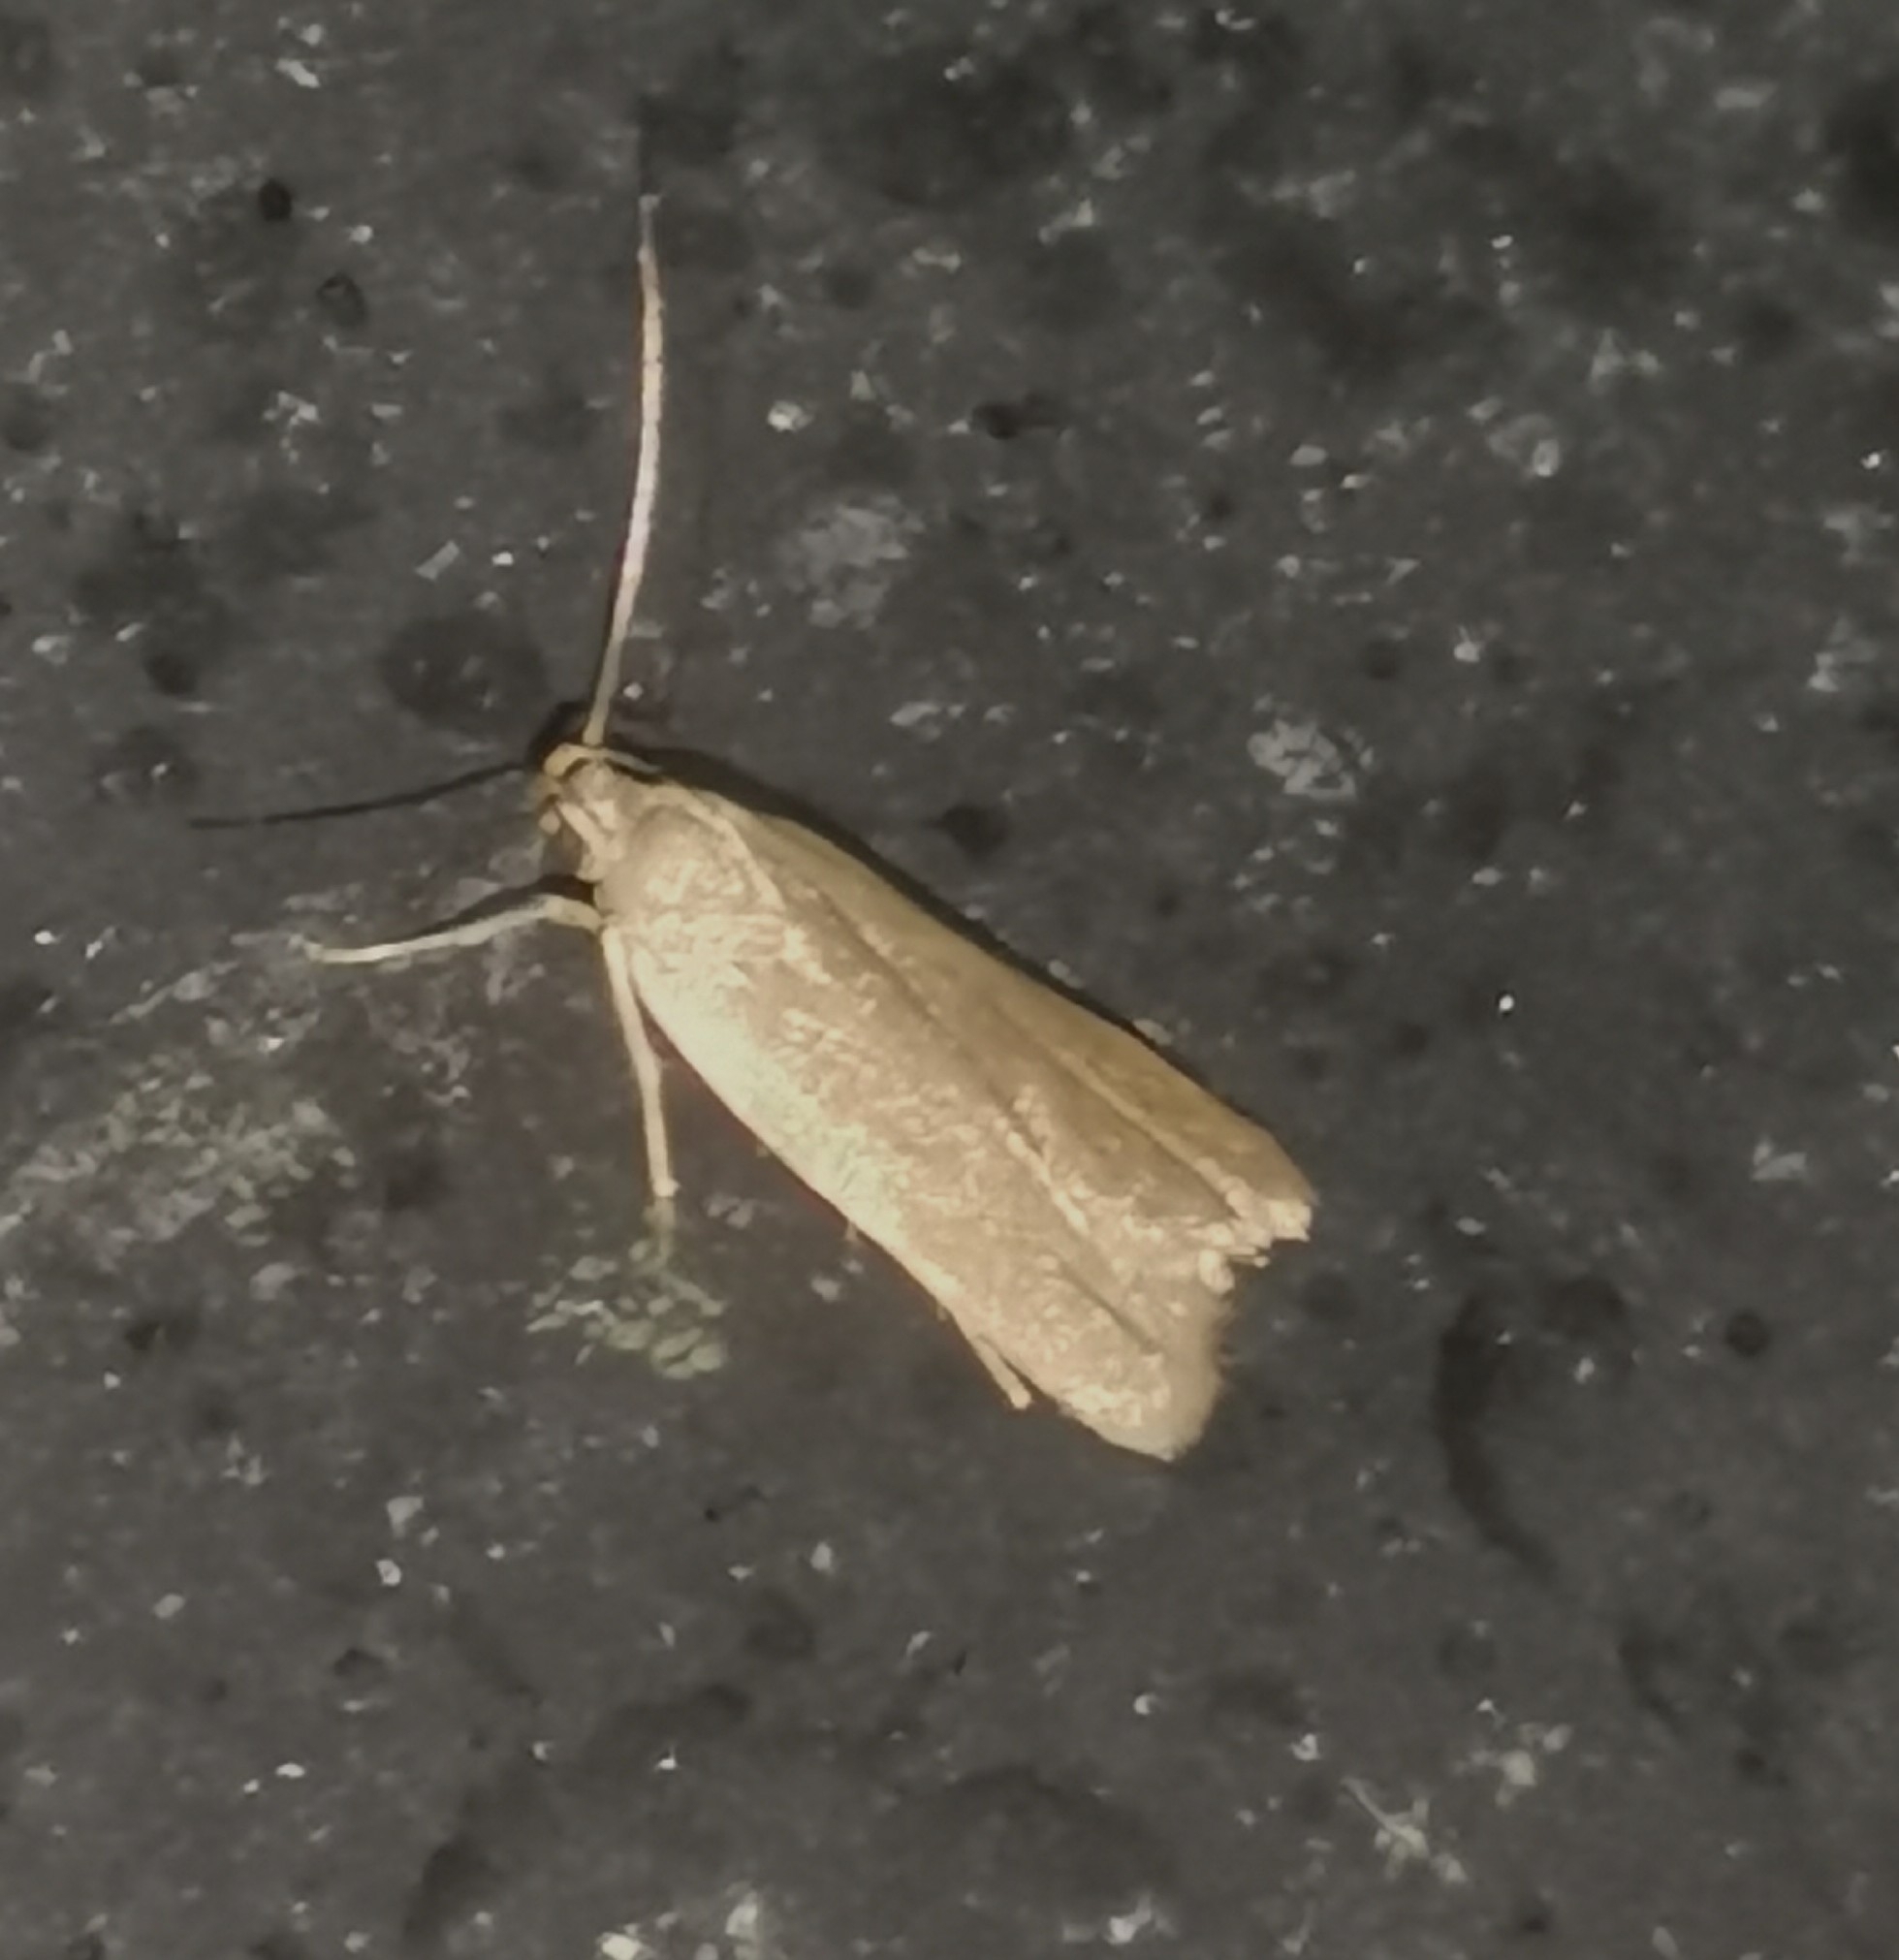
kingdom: Animalia
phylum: Arthropoda
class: Insecta
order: Lepidoptera
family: Gelechiidae
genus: Acompsia
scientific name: Acompsia cinerella
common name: Ash-coloured sober
